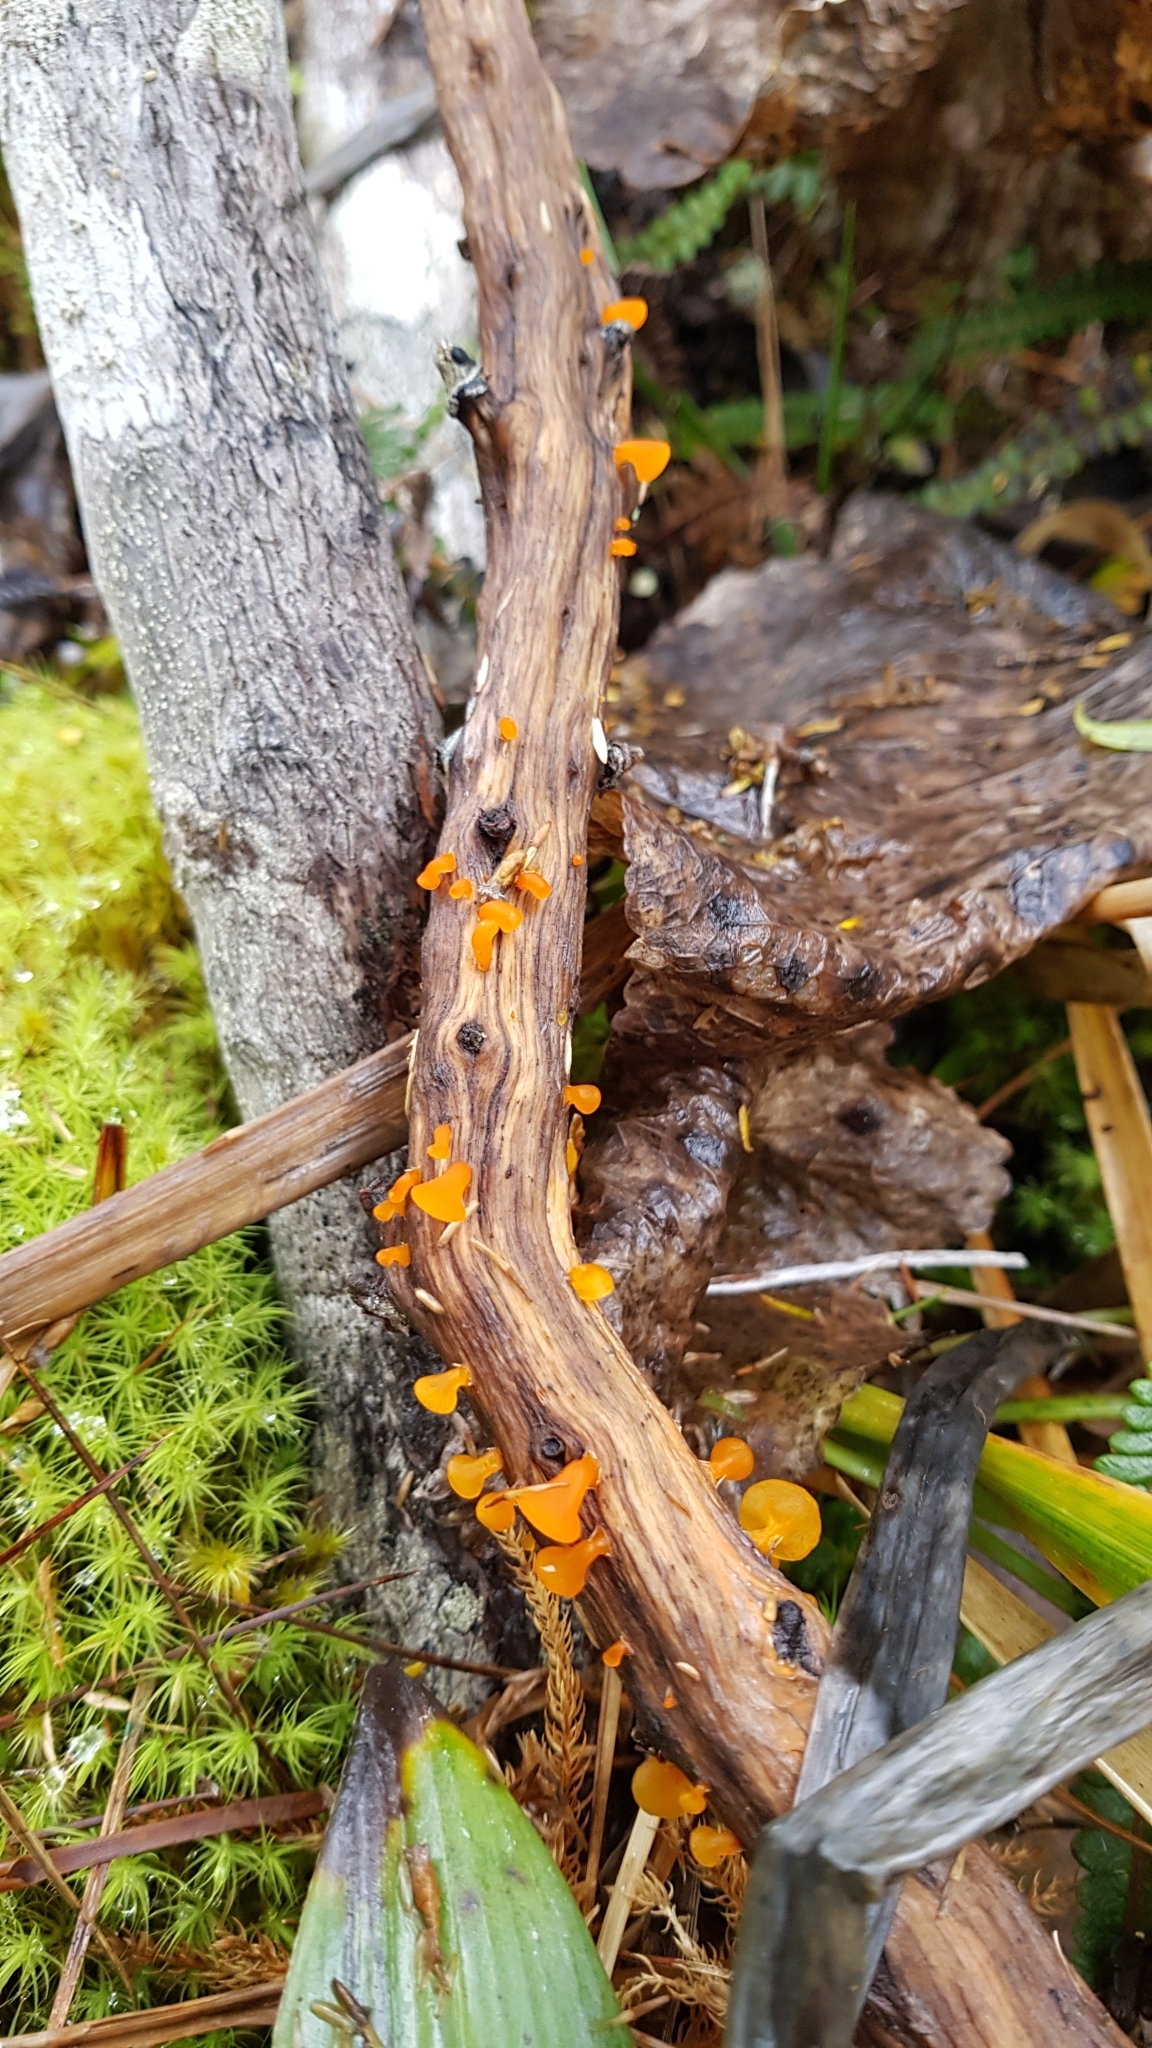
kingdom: Fungi
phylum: Basidiomycota
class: Dacrymycetes
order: Dacrymycetales
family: Dacrymycetaceae
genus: Heterotextus
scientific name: Heterotextus miltinus
